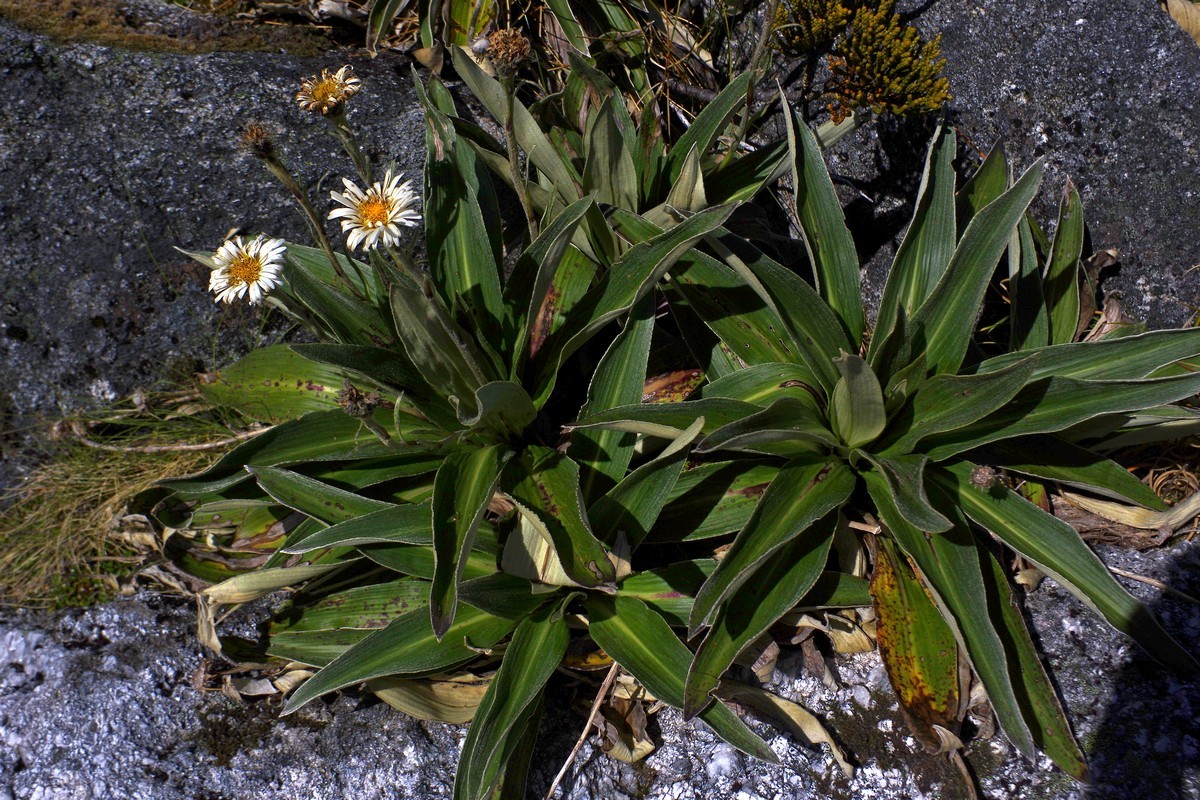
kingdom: Plantae
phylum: Tracheophyta
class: Magnoliopsida
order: Asterales
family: Asteraceae
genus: Celmisia
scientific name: Celmisia verbascifolia
